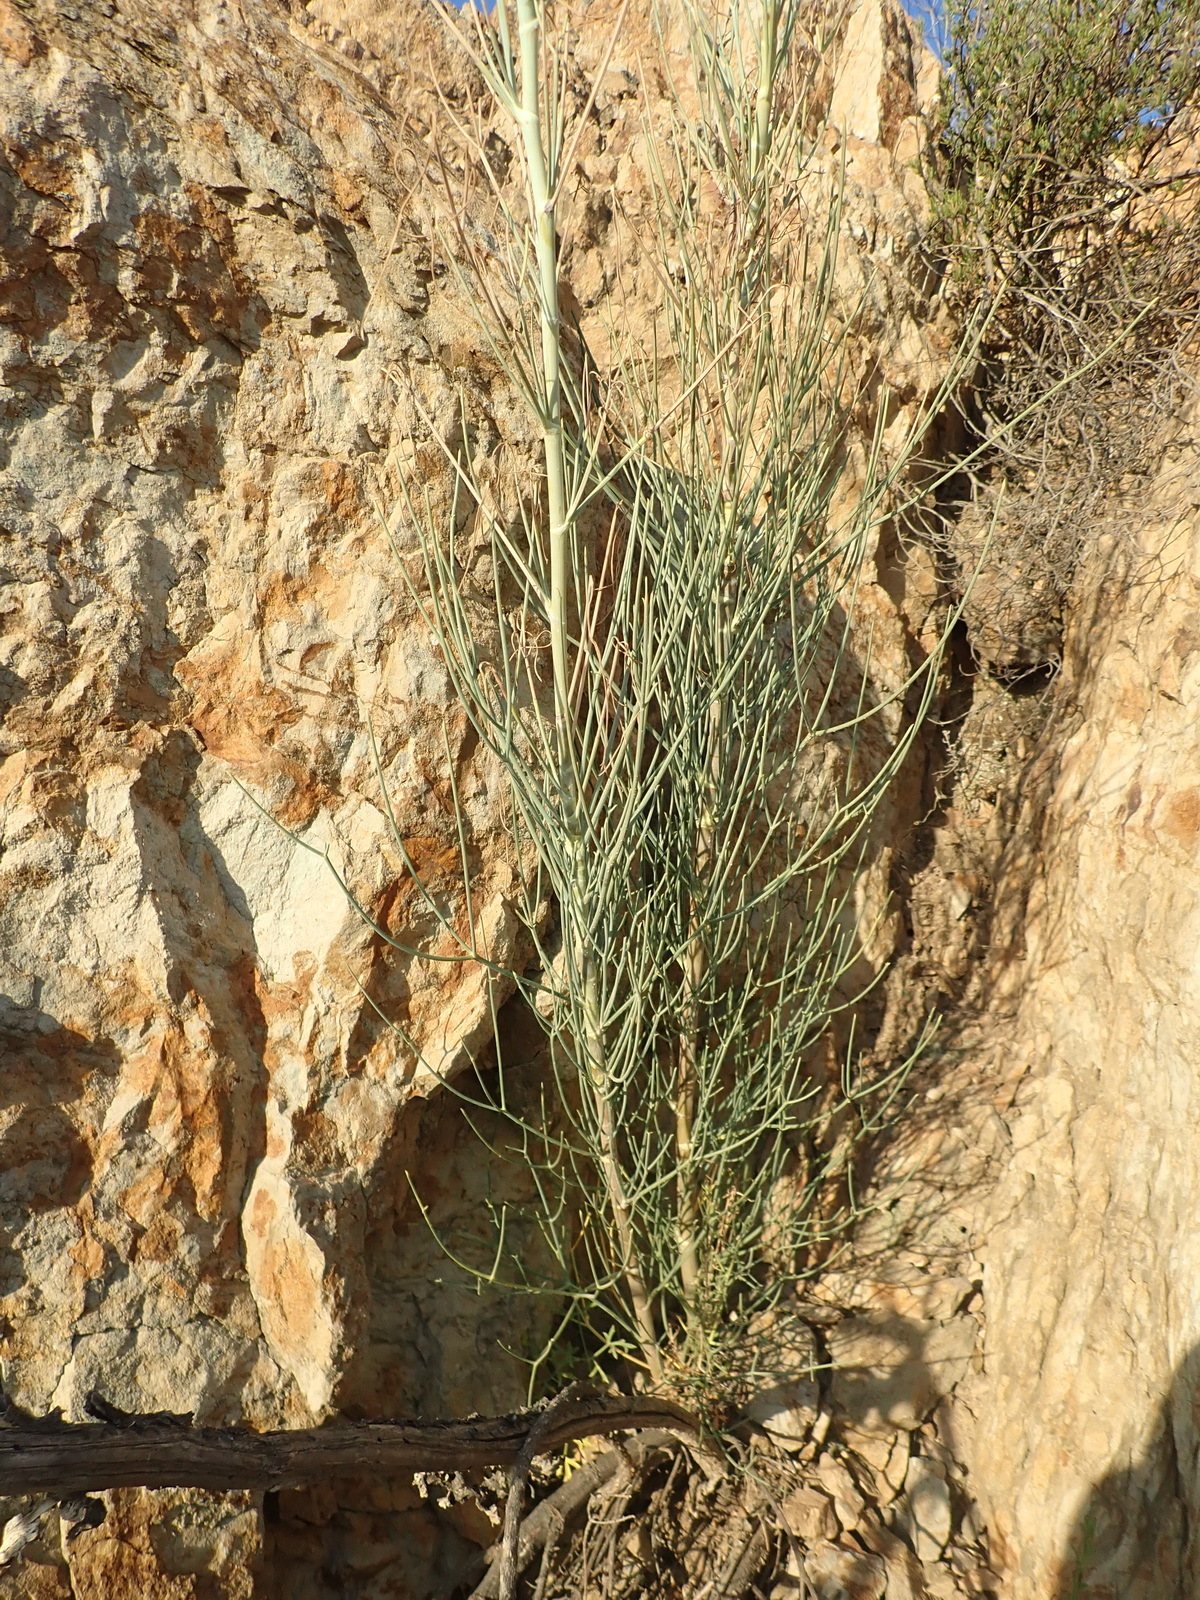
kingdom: Plantae
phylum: Tracheophyta
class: Magnoliopsida
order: Apiales
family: Apiaceae
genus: Anginon
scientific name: Anginon swellendamense
